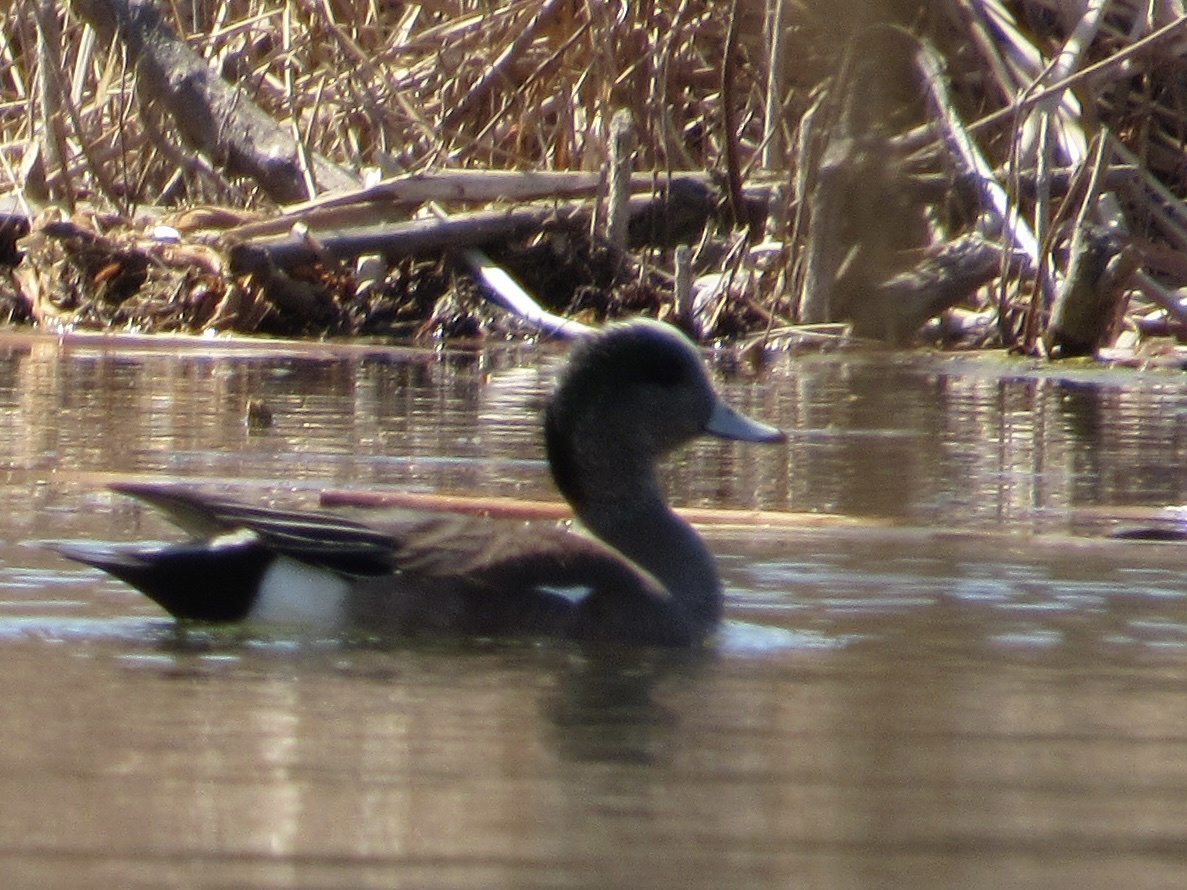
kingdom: Animalia
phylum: Chordata
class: Aves
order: Anseriformes
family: Anatidae
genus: Mareca
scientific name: Mareca americana
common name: American wigeon
